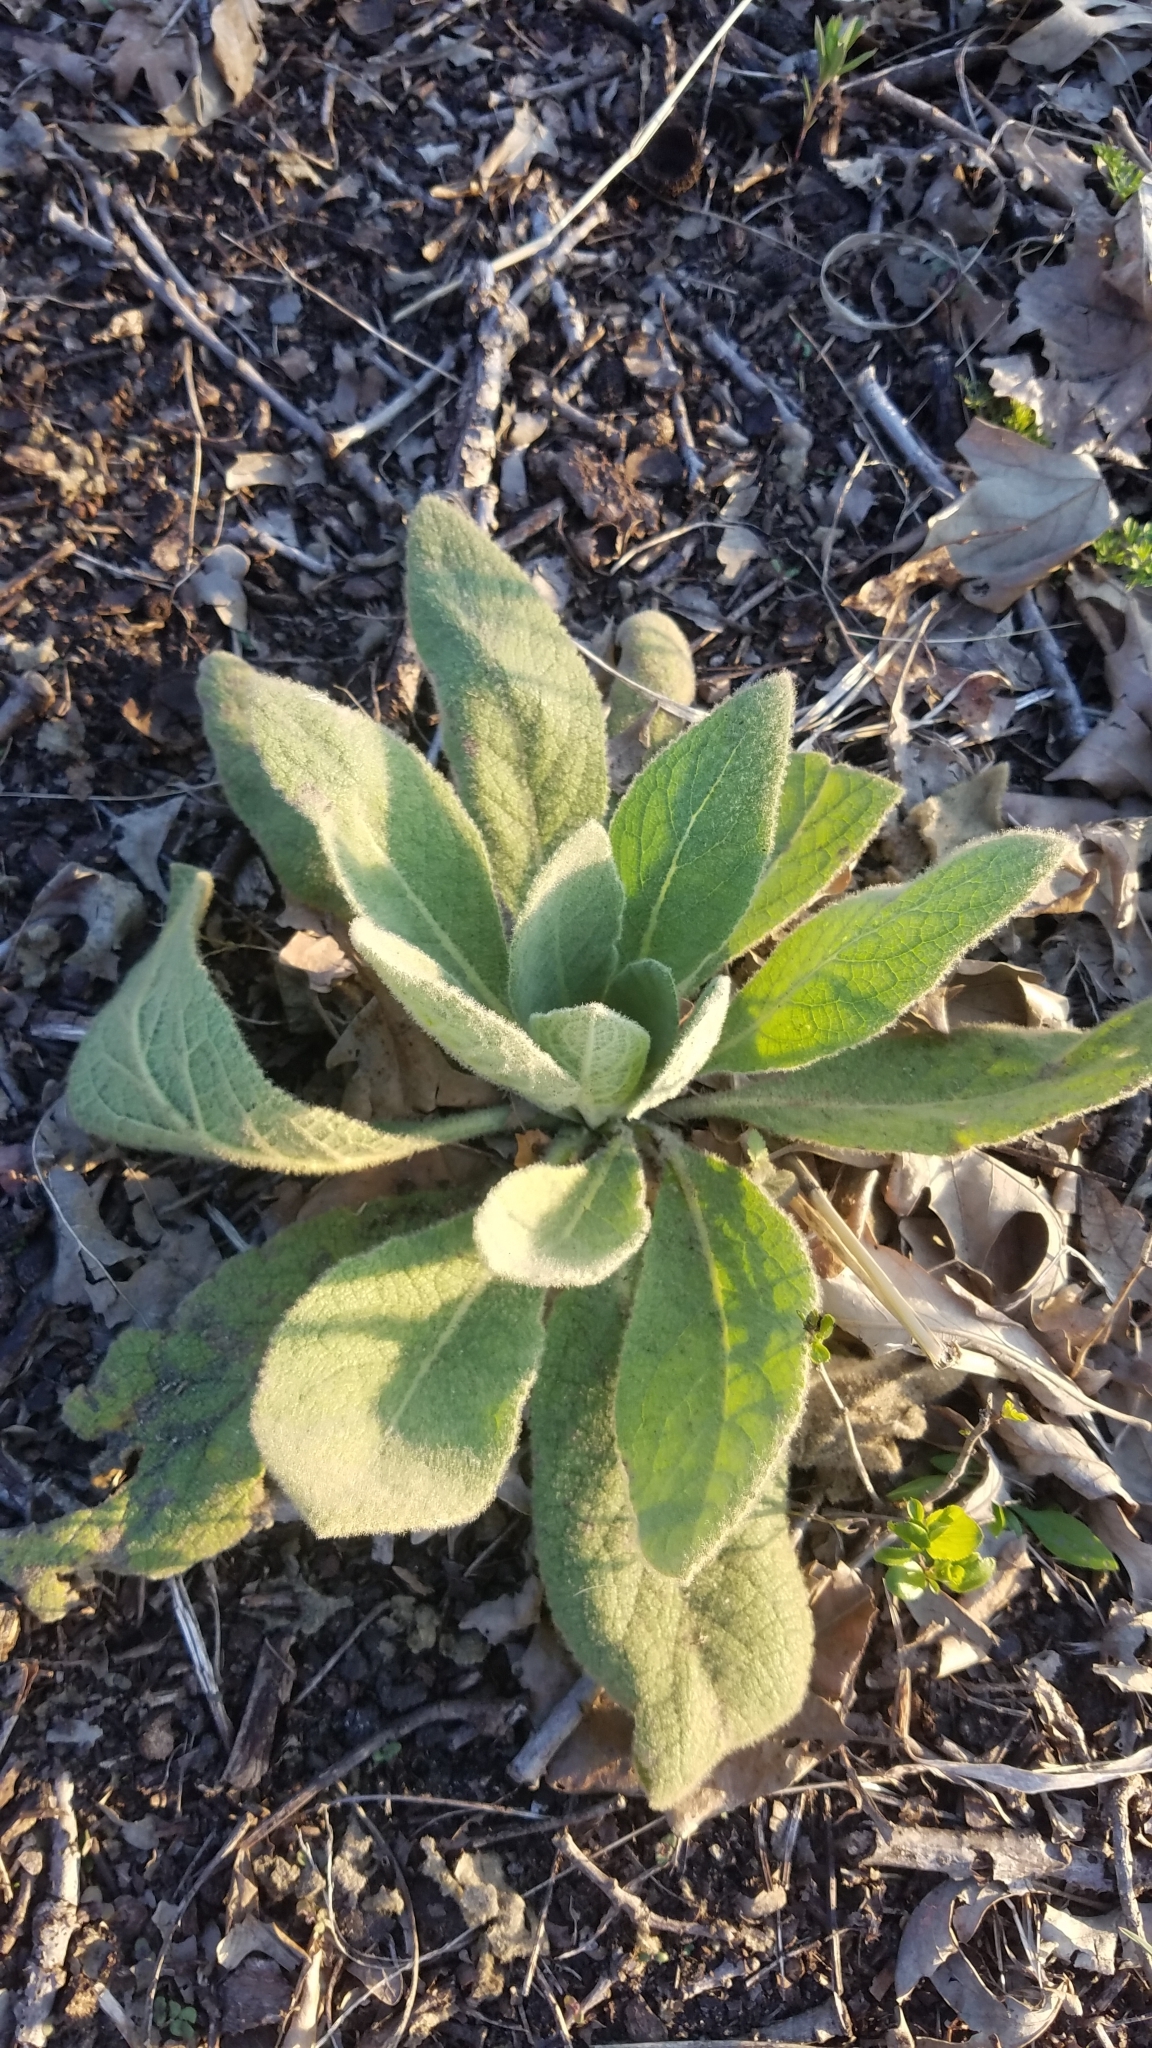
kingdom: Plantae
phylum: Tracheophyta
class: Magnoliopsida
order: Lamiales
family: Scrophulariaceae
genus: Verbascum
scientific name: Verbascum thapsus
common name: Common mullein
